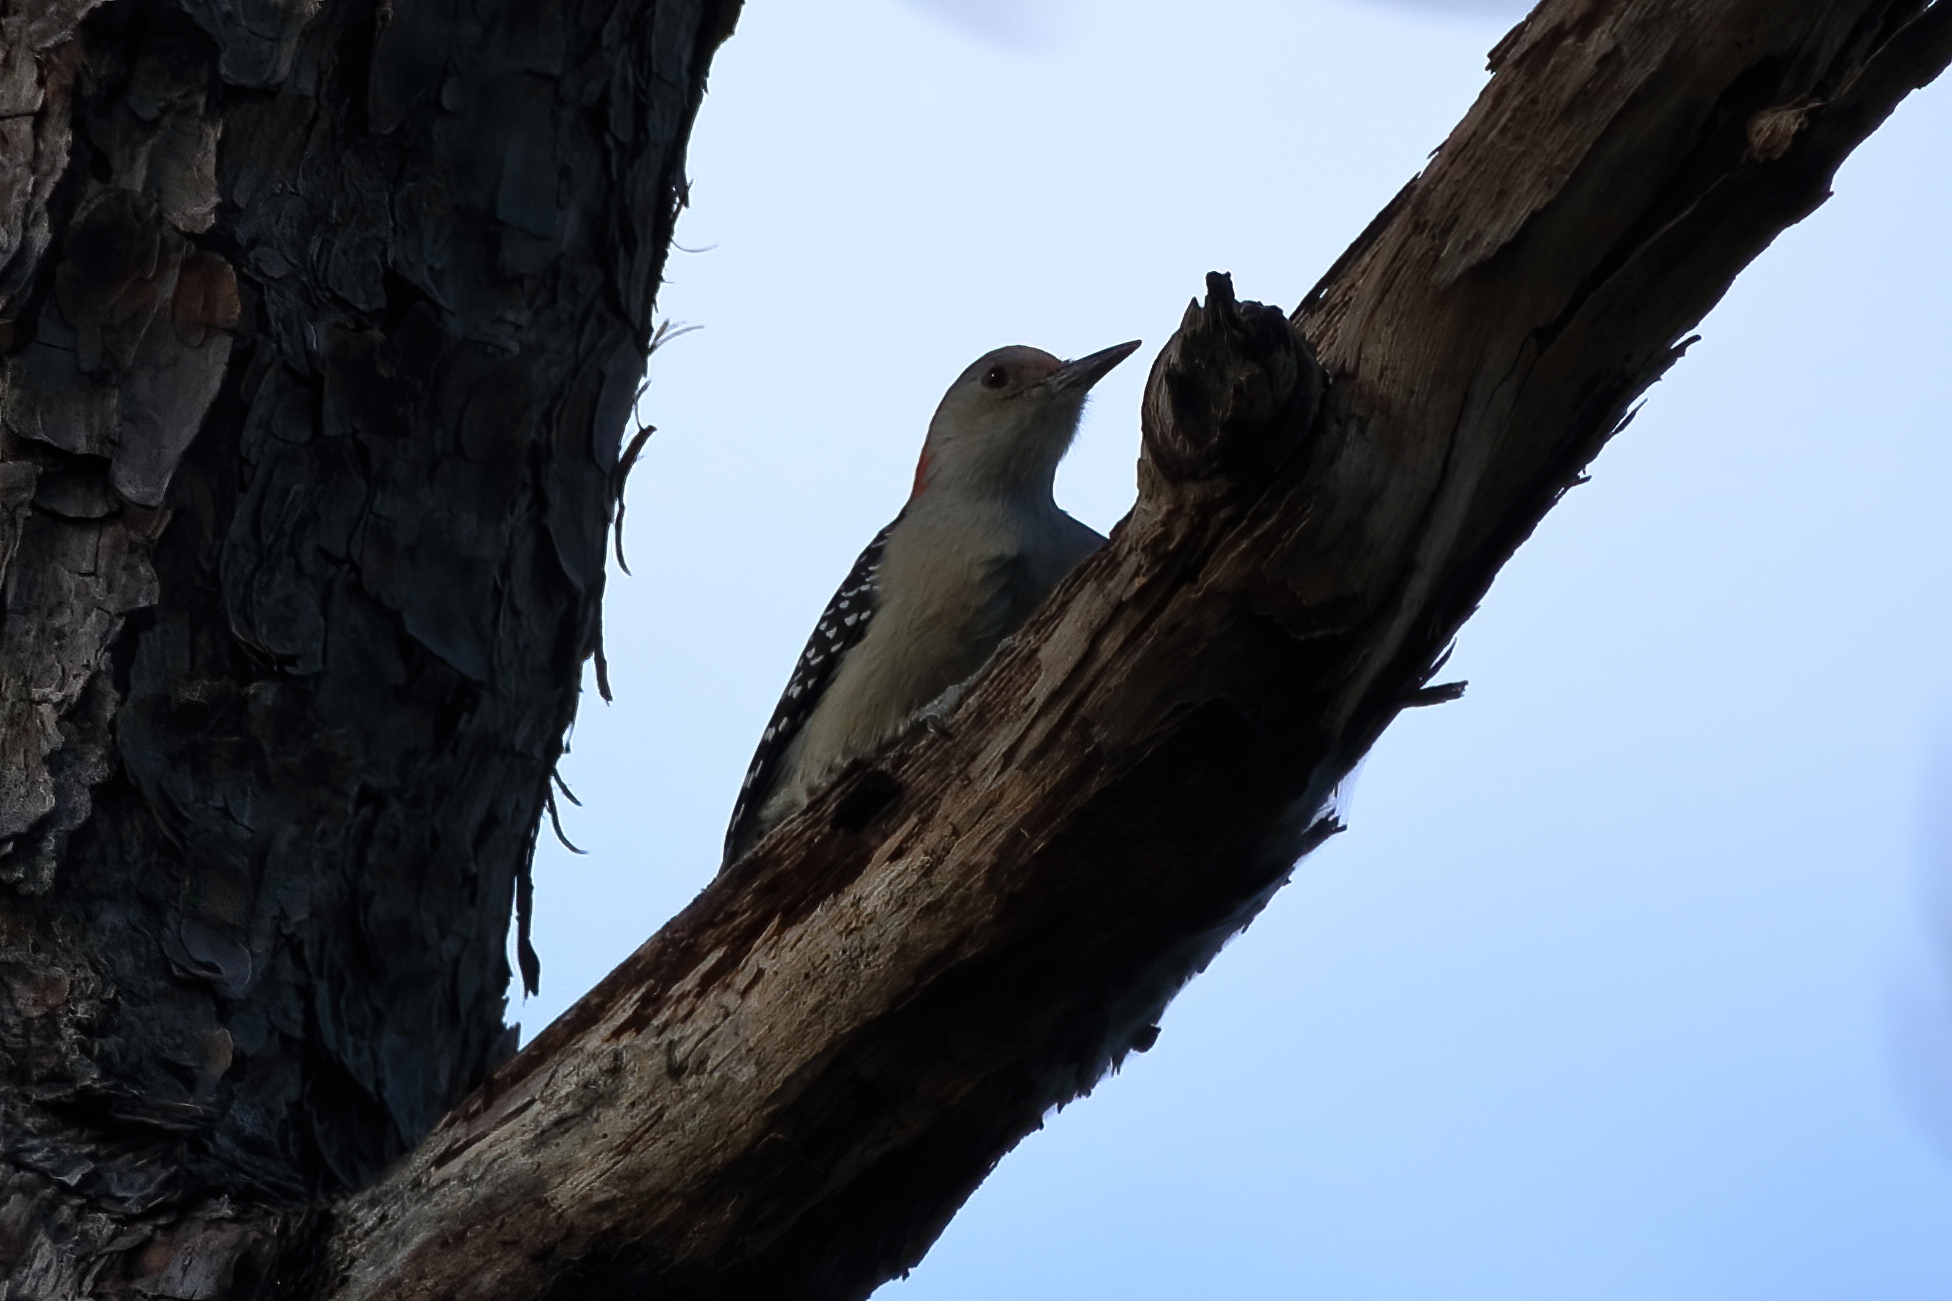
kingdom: Animalia
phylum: Chordata
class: Aves
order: Piciformes
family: Picidae
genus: Melanerpes
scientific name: Melanerpes carolinus
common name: Red-bellied woodpecker
